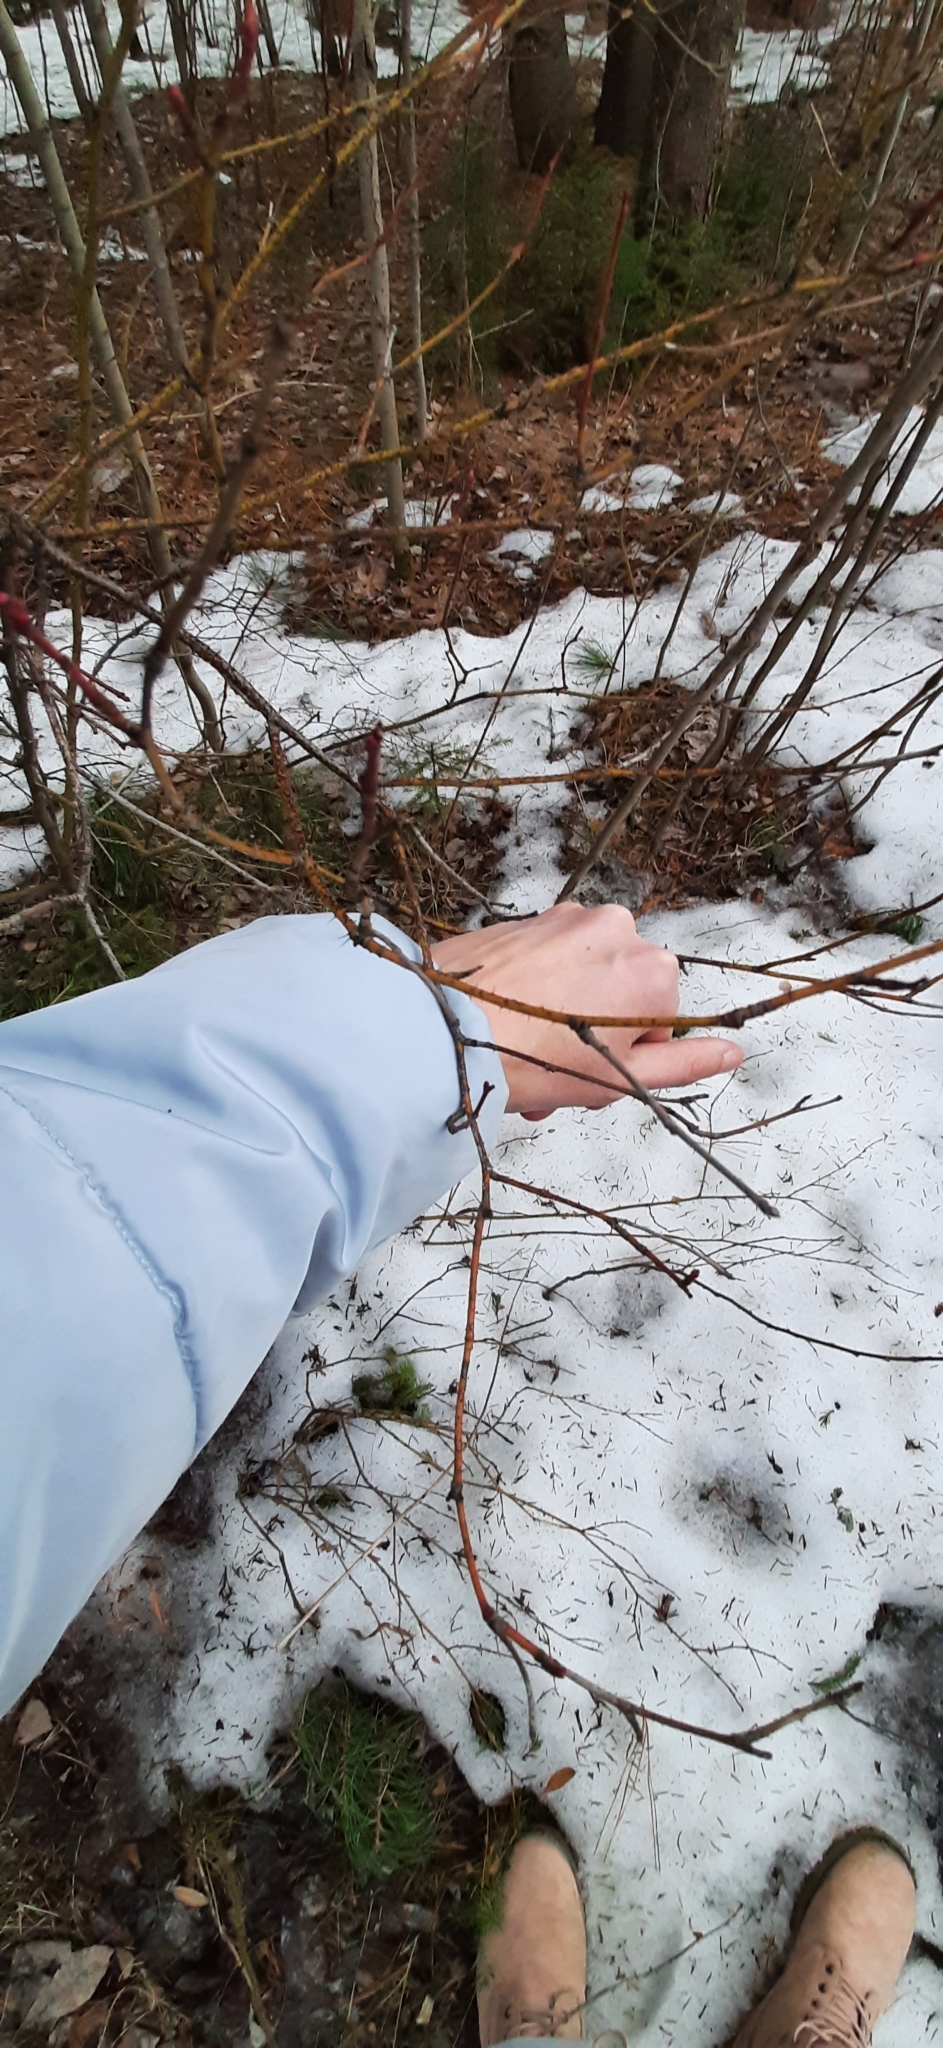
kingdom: Plantae
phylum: Tracheophyta
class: Magnoliopsida
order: Rosales
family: Rosaceae
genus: Rosa
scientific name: Rosa acicularis
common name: Prickly rose
